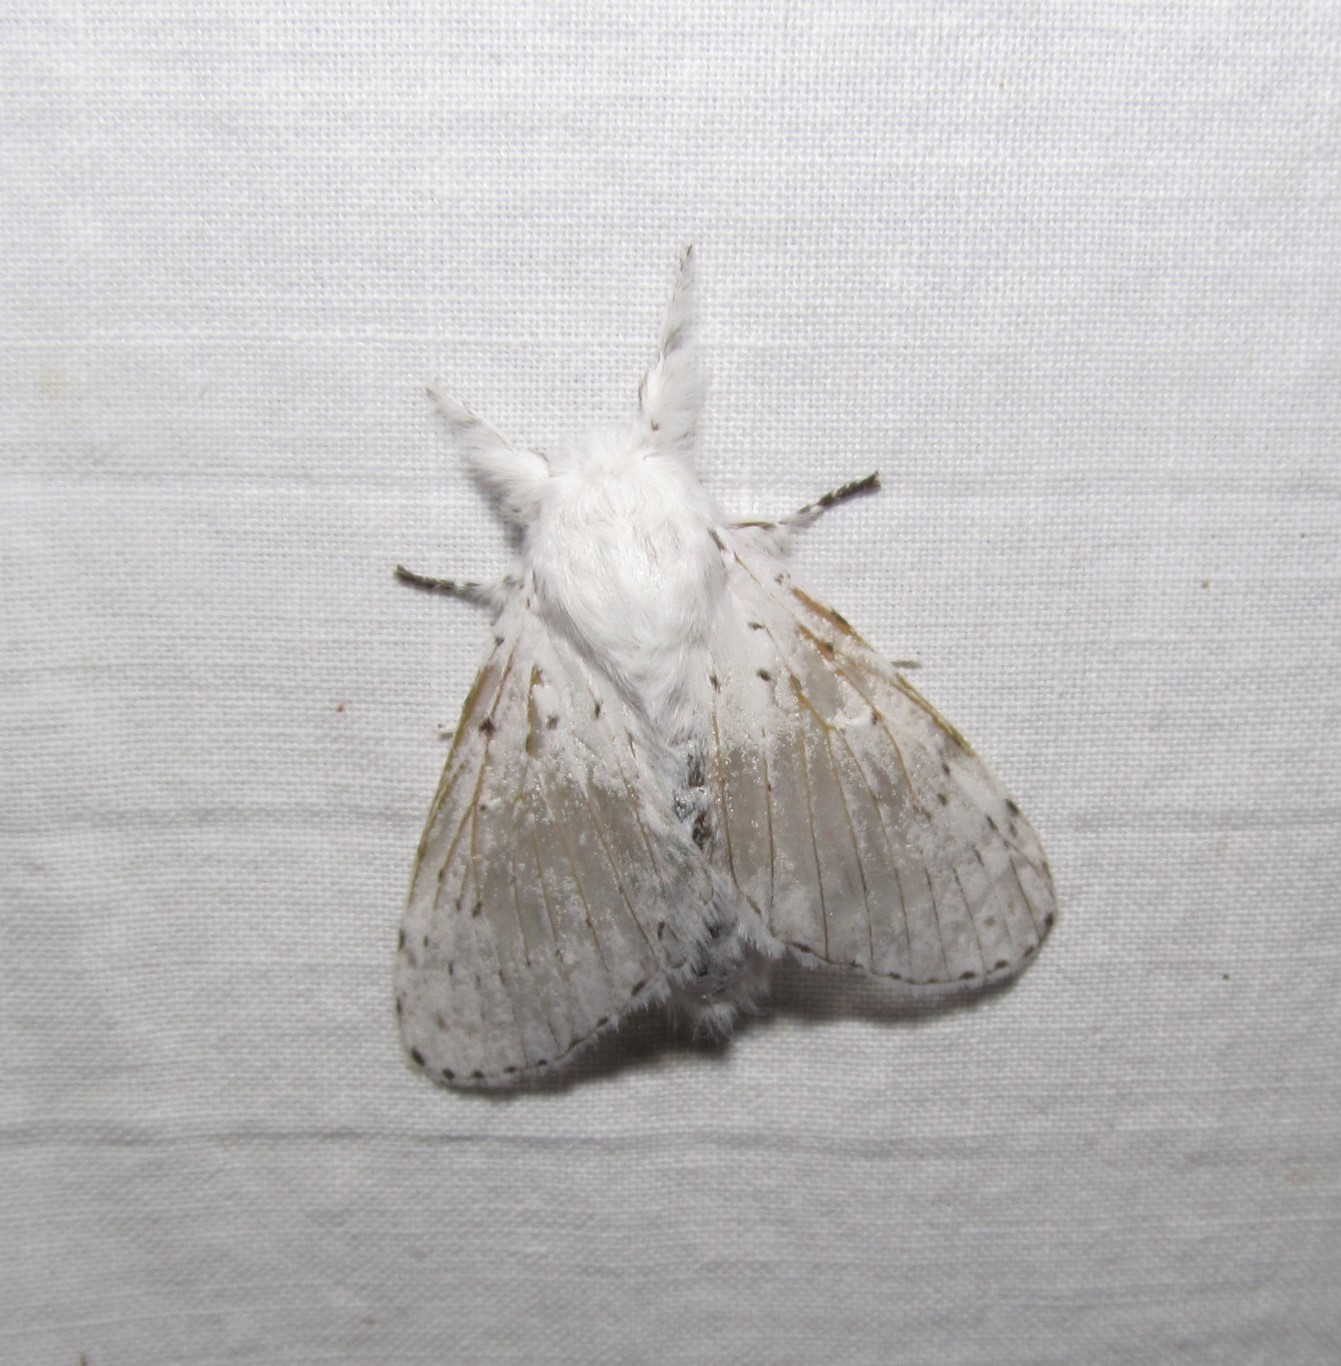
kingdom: Animalia
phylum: Arthropoda
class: Insecta
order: Lepidoptera
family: Lasiocampidae
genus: Artace
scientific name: Artace cribrarius
